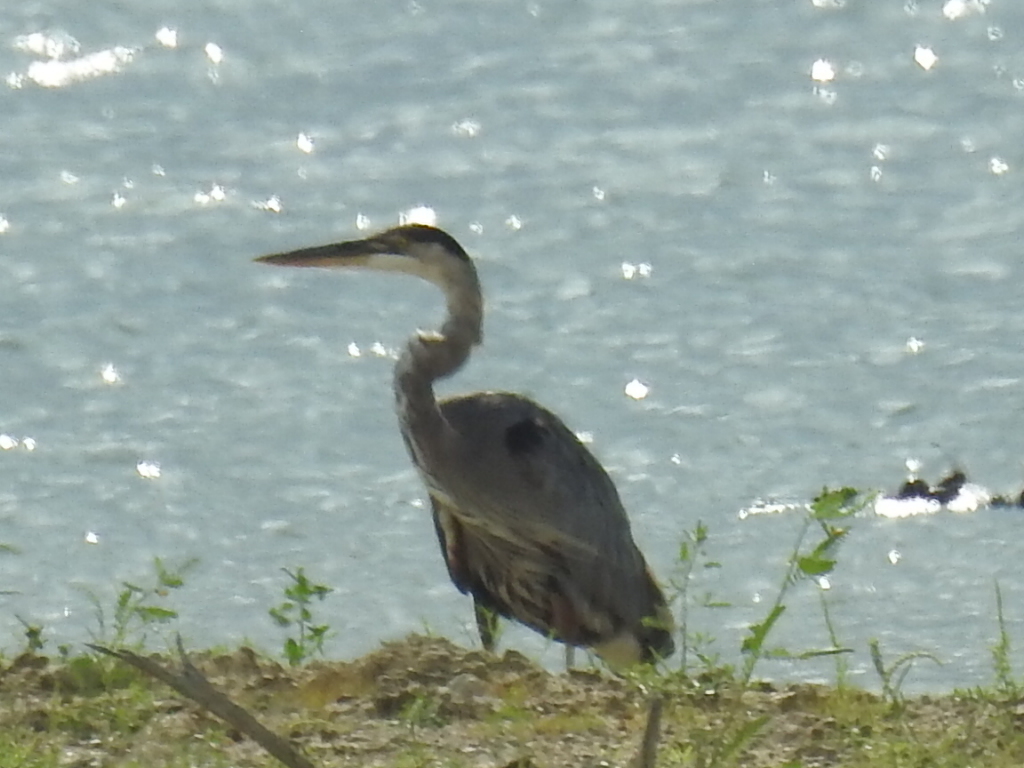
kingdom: Animalia
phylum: Chordata
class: Aves
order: Pelecaniformes
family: Ardeidae
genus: Ardea
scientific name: Ardea herodias
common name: Great blue heron
